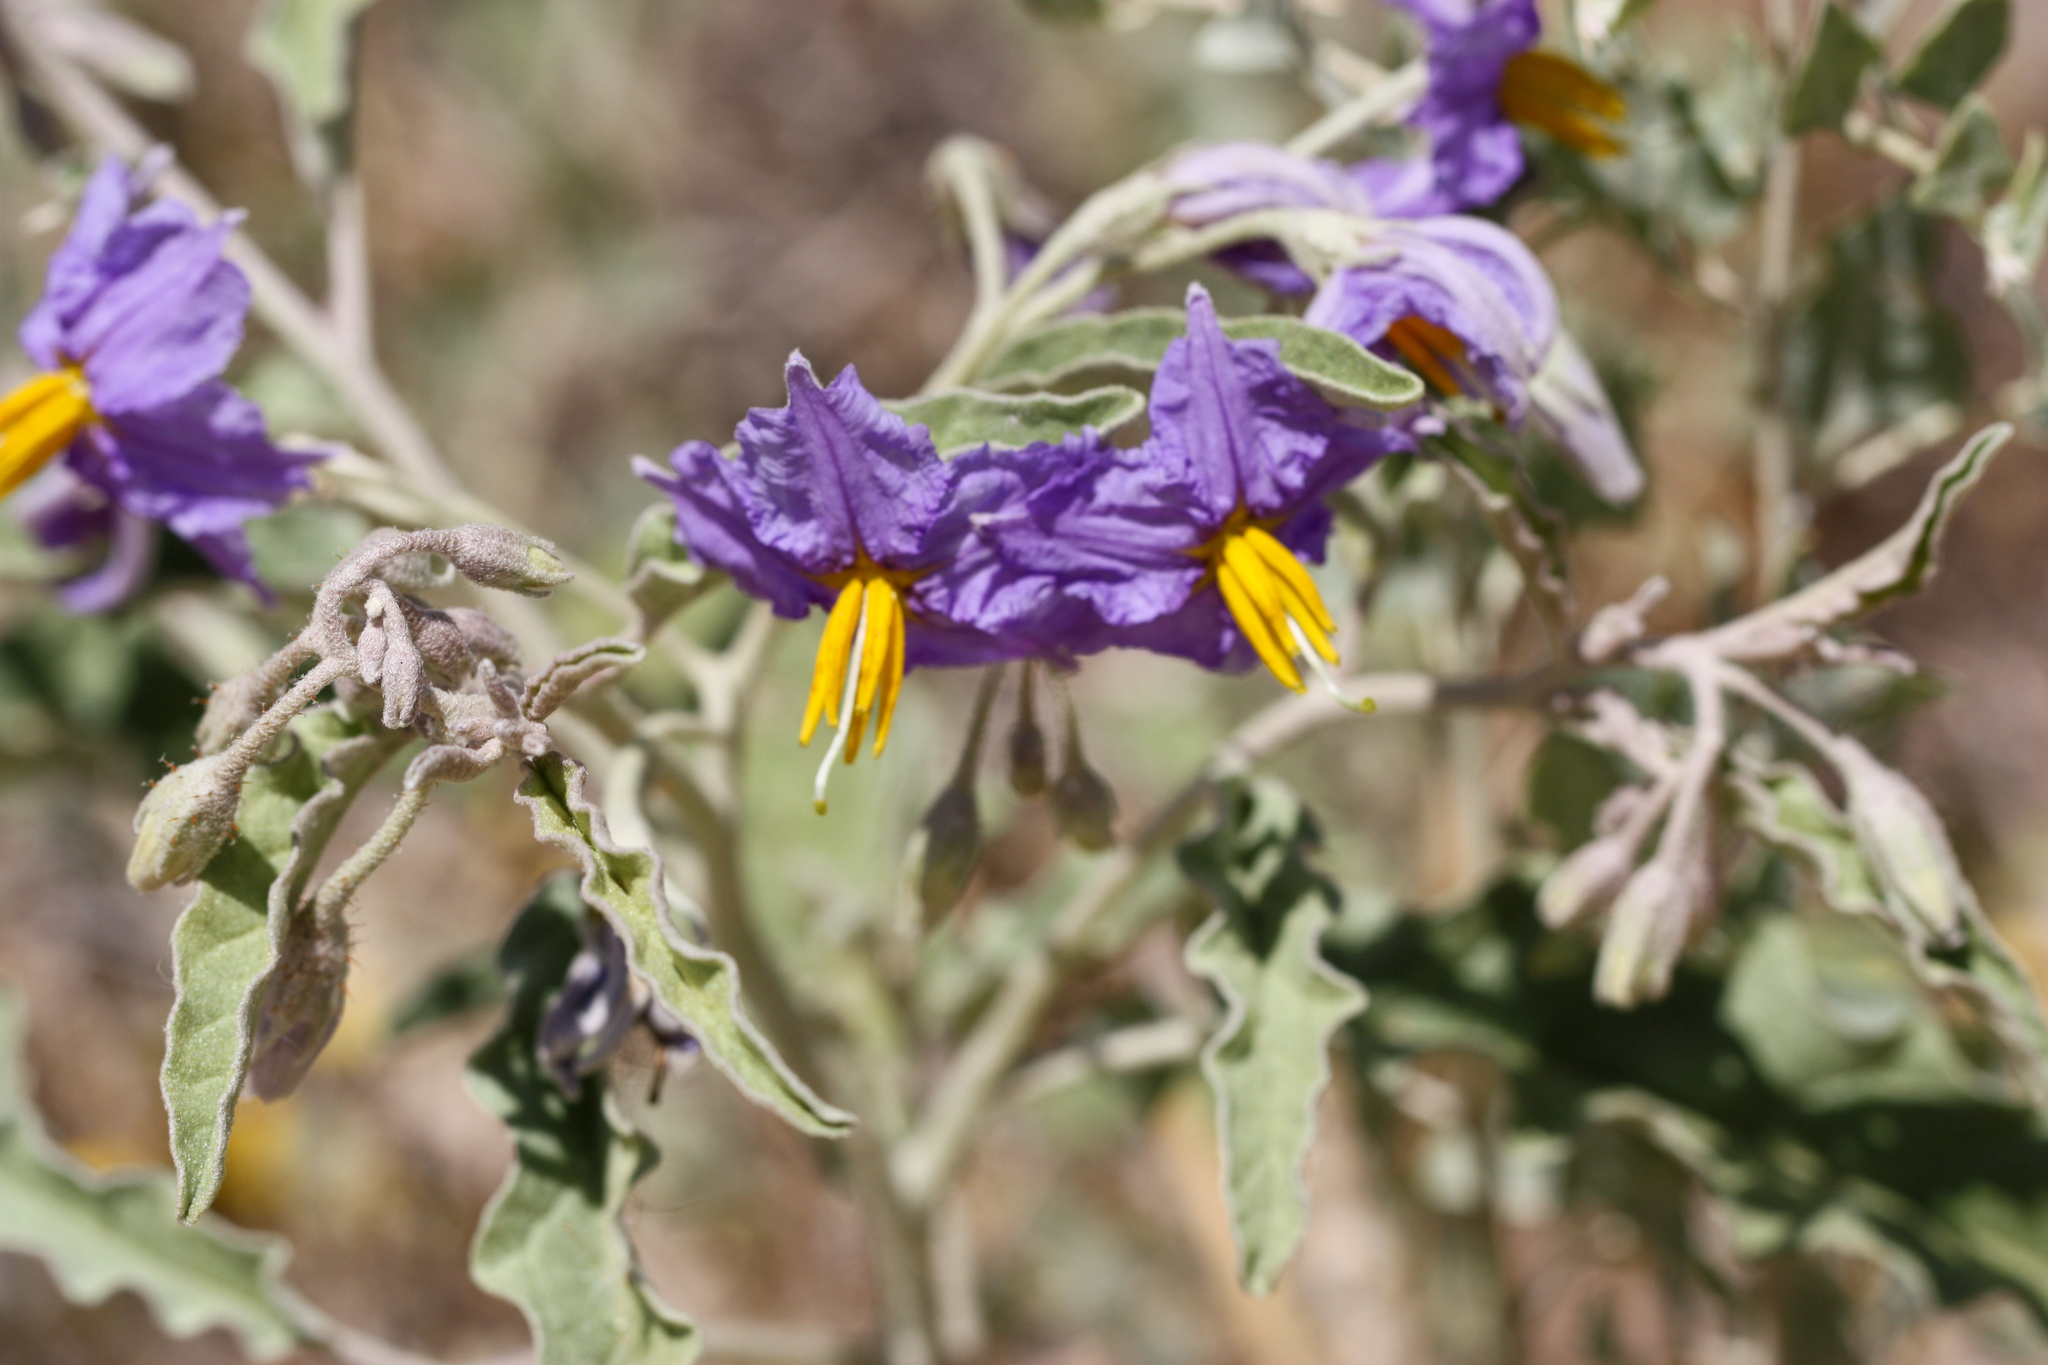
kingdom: Plantae
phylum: Tracheophyta
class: Magnoliopsida
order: Solanales
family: Solanaceae
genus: Solanum
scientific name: Solanum elaeagnifolium
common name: Silverleaf nightshade
